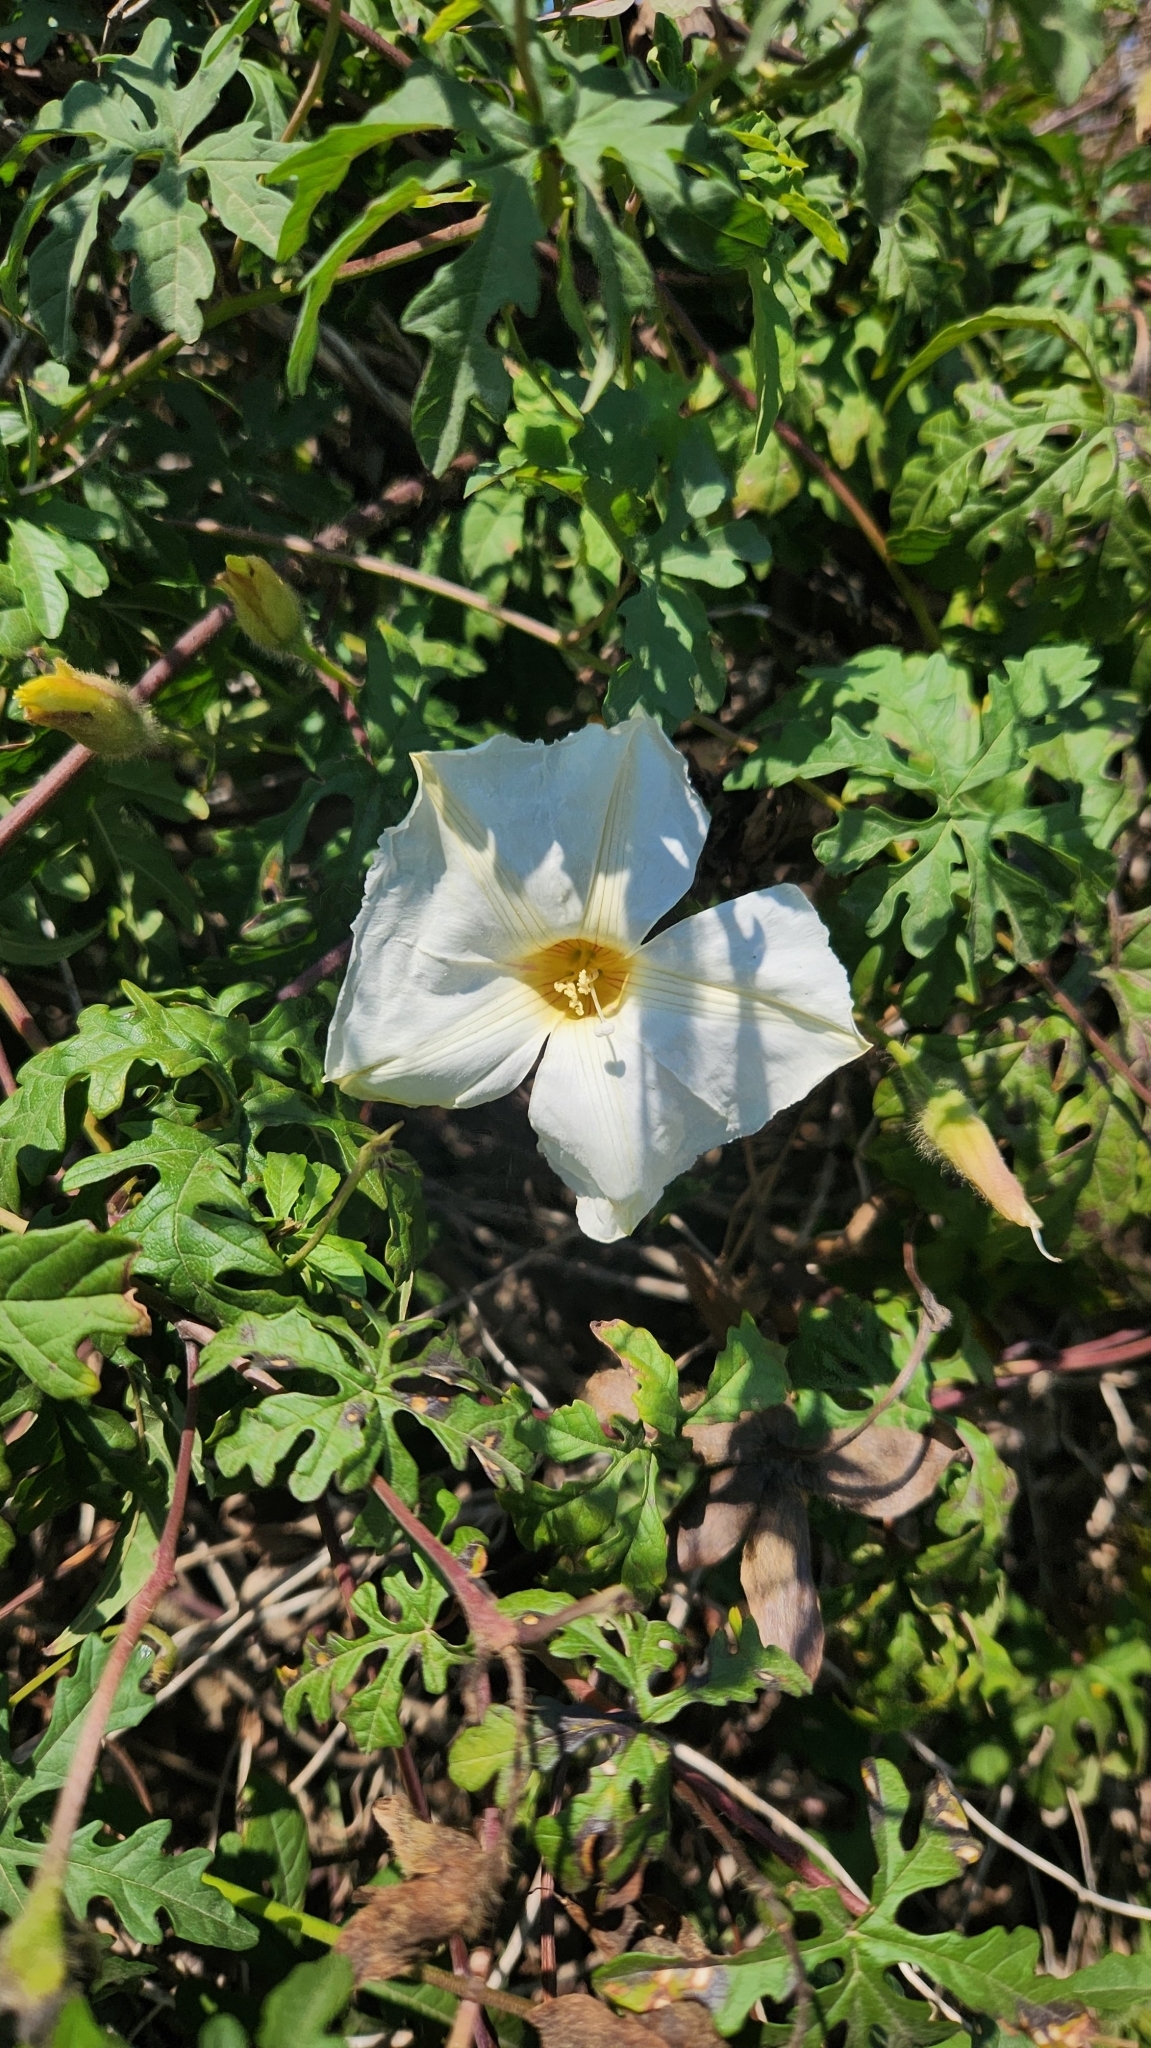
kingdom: Plantae
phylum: Tracheophyta
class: Magnoliopsida
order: Solanales
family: Convolvulaceae
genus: Distimake
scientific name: Distimake dissectus
